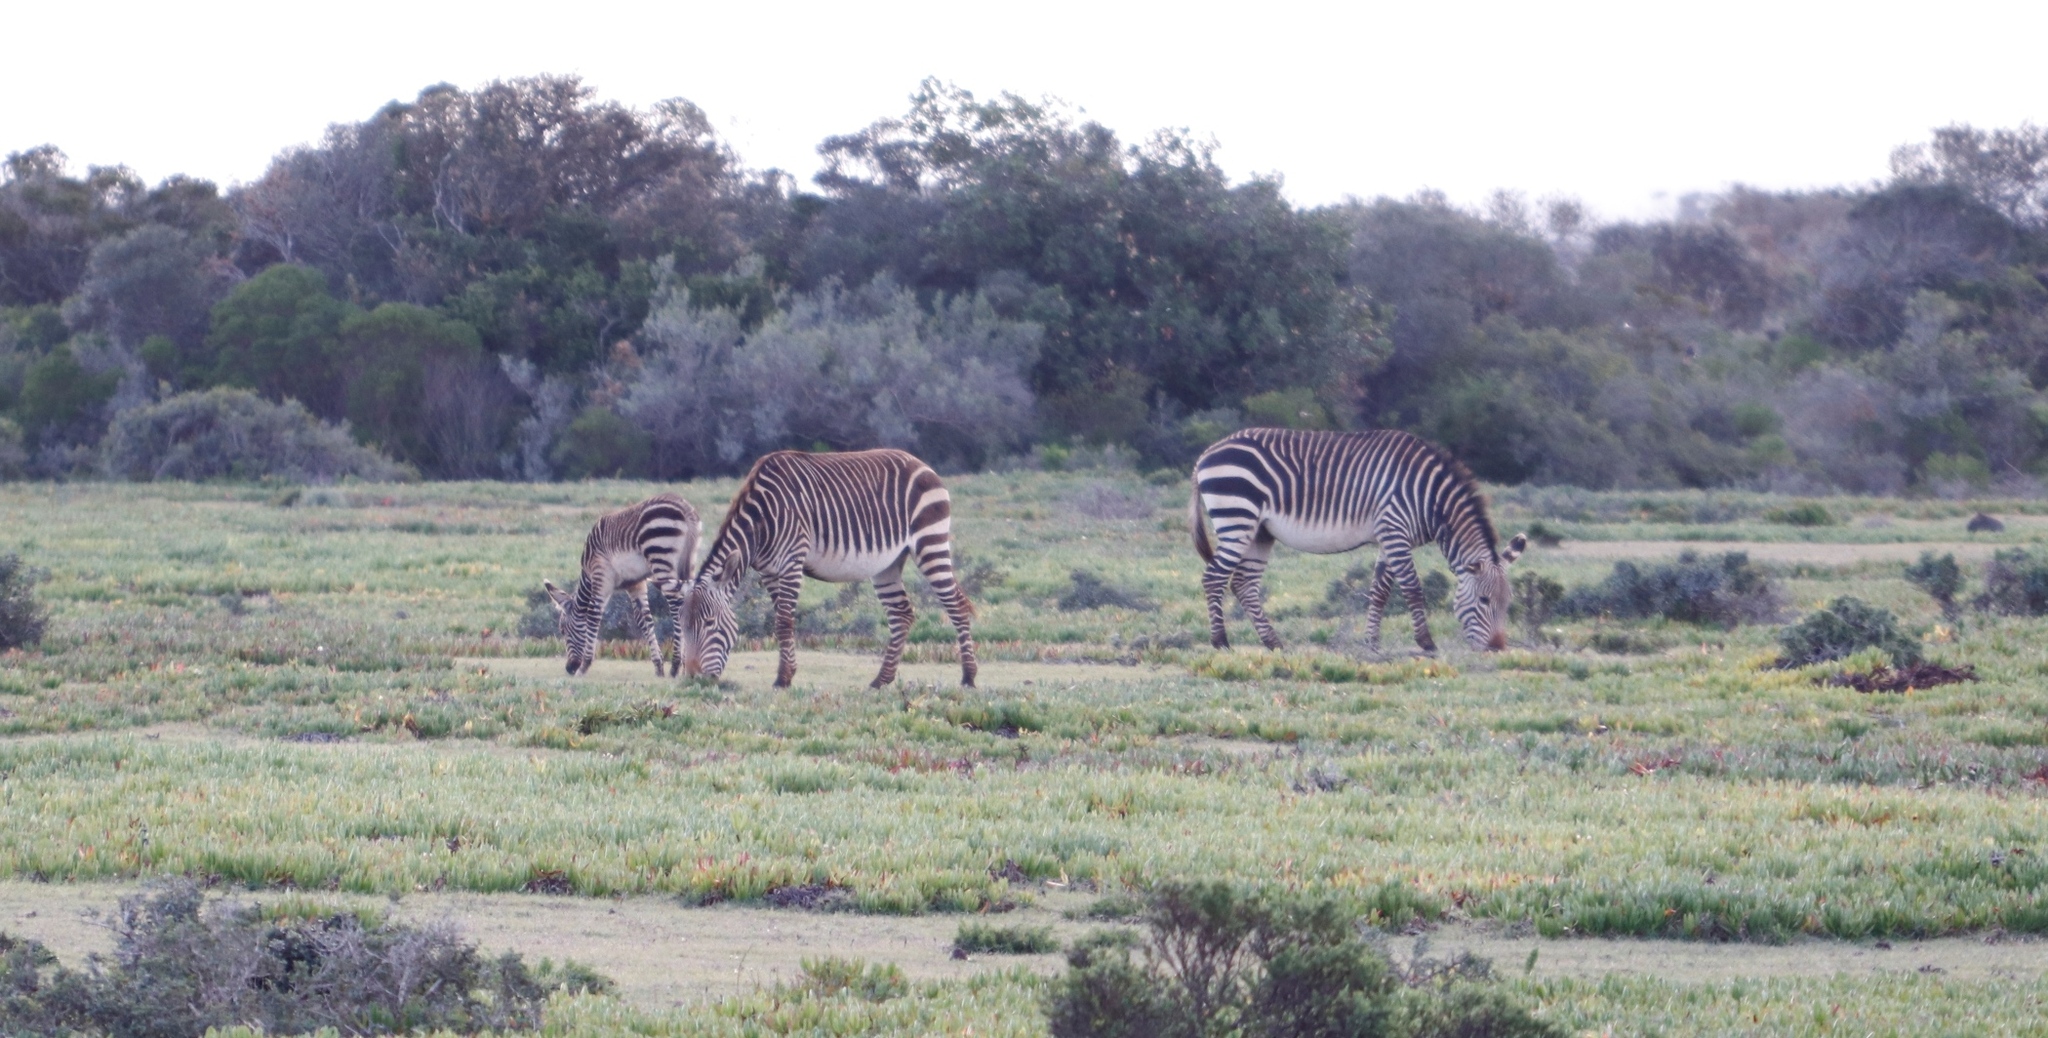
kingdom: Animalia
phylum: Chordata
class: Mammalia
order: Perissodactyla
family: Equidae
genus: Equus
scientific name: Equus zebra
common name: Mountain zebra
